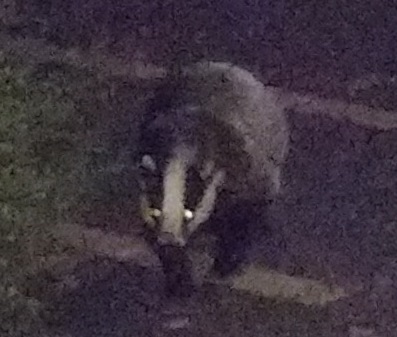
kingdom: Animalia
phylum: Chordata
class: Mammalia
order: Carnivora
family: Mustelidae
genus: Meles
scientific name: Meles meles
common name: Eurasian badger
